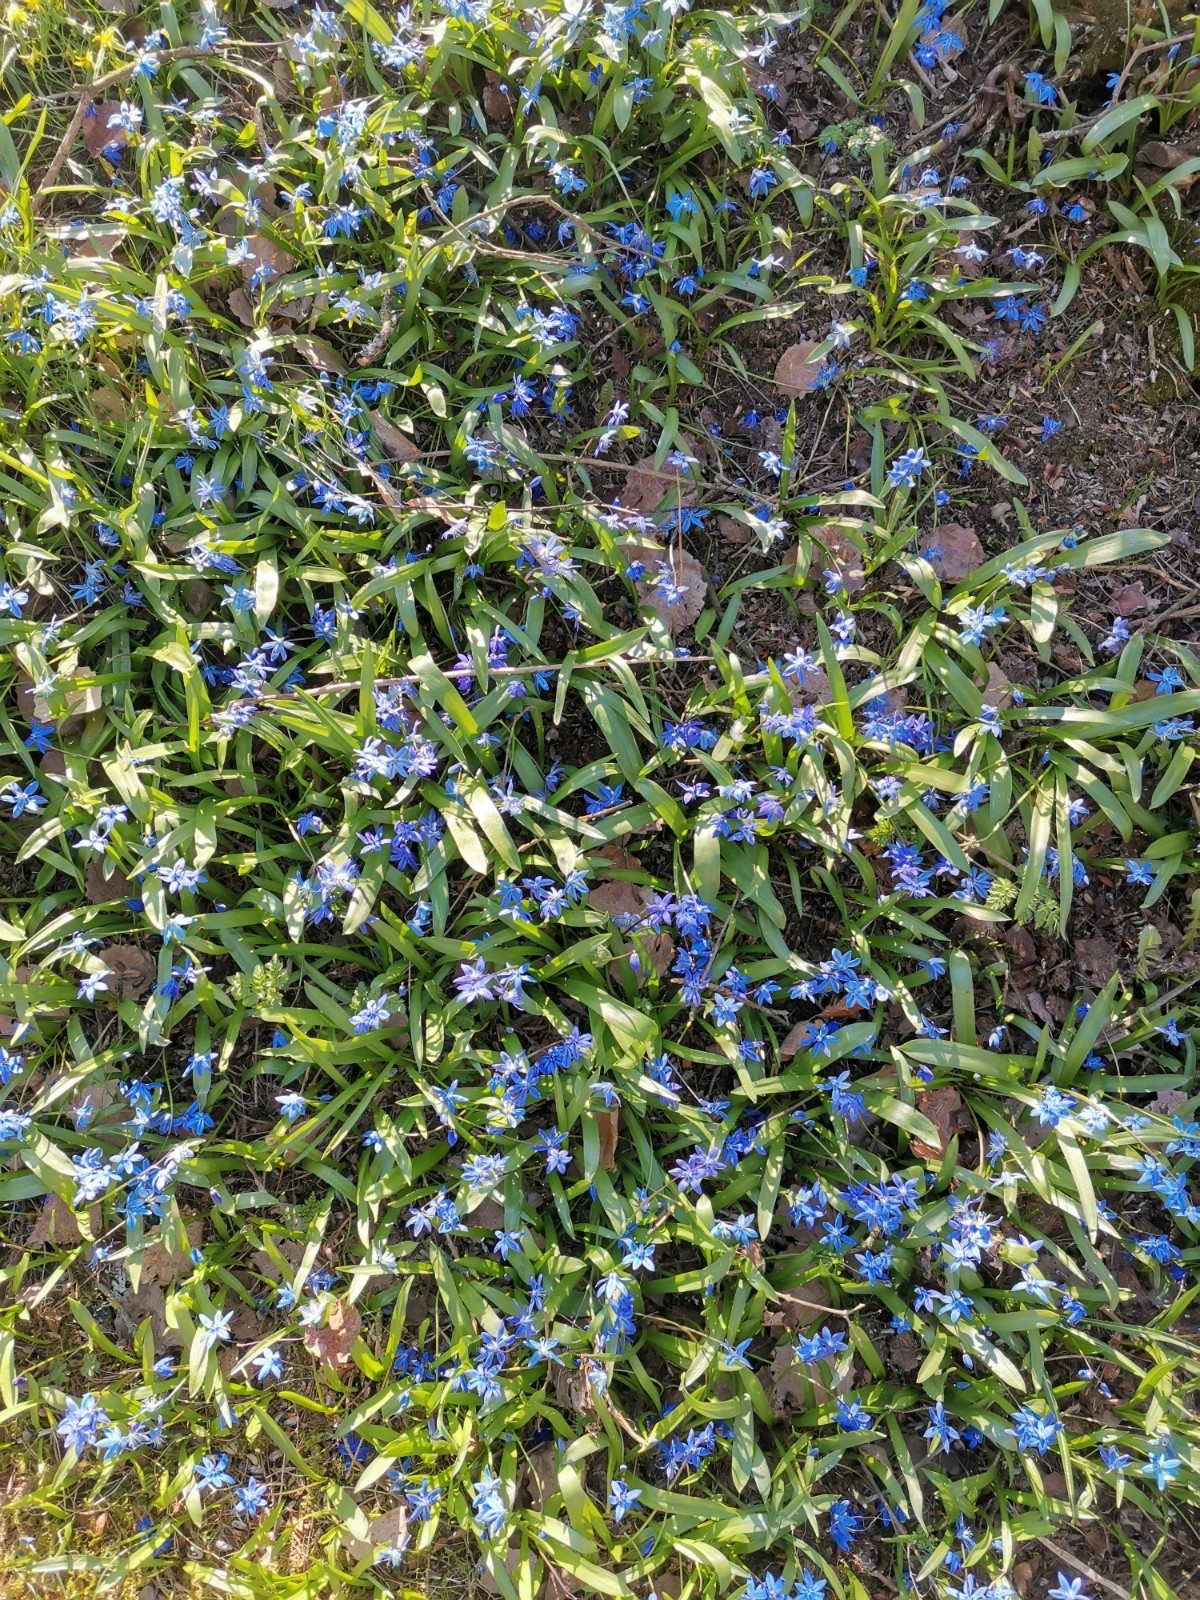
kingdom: Plantae
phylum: Tracheophyta
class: Liliopsida
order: Asparagales
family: Asparagaceae
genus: Scilla
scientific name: Scilla siberica
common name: Siberian squill
